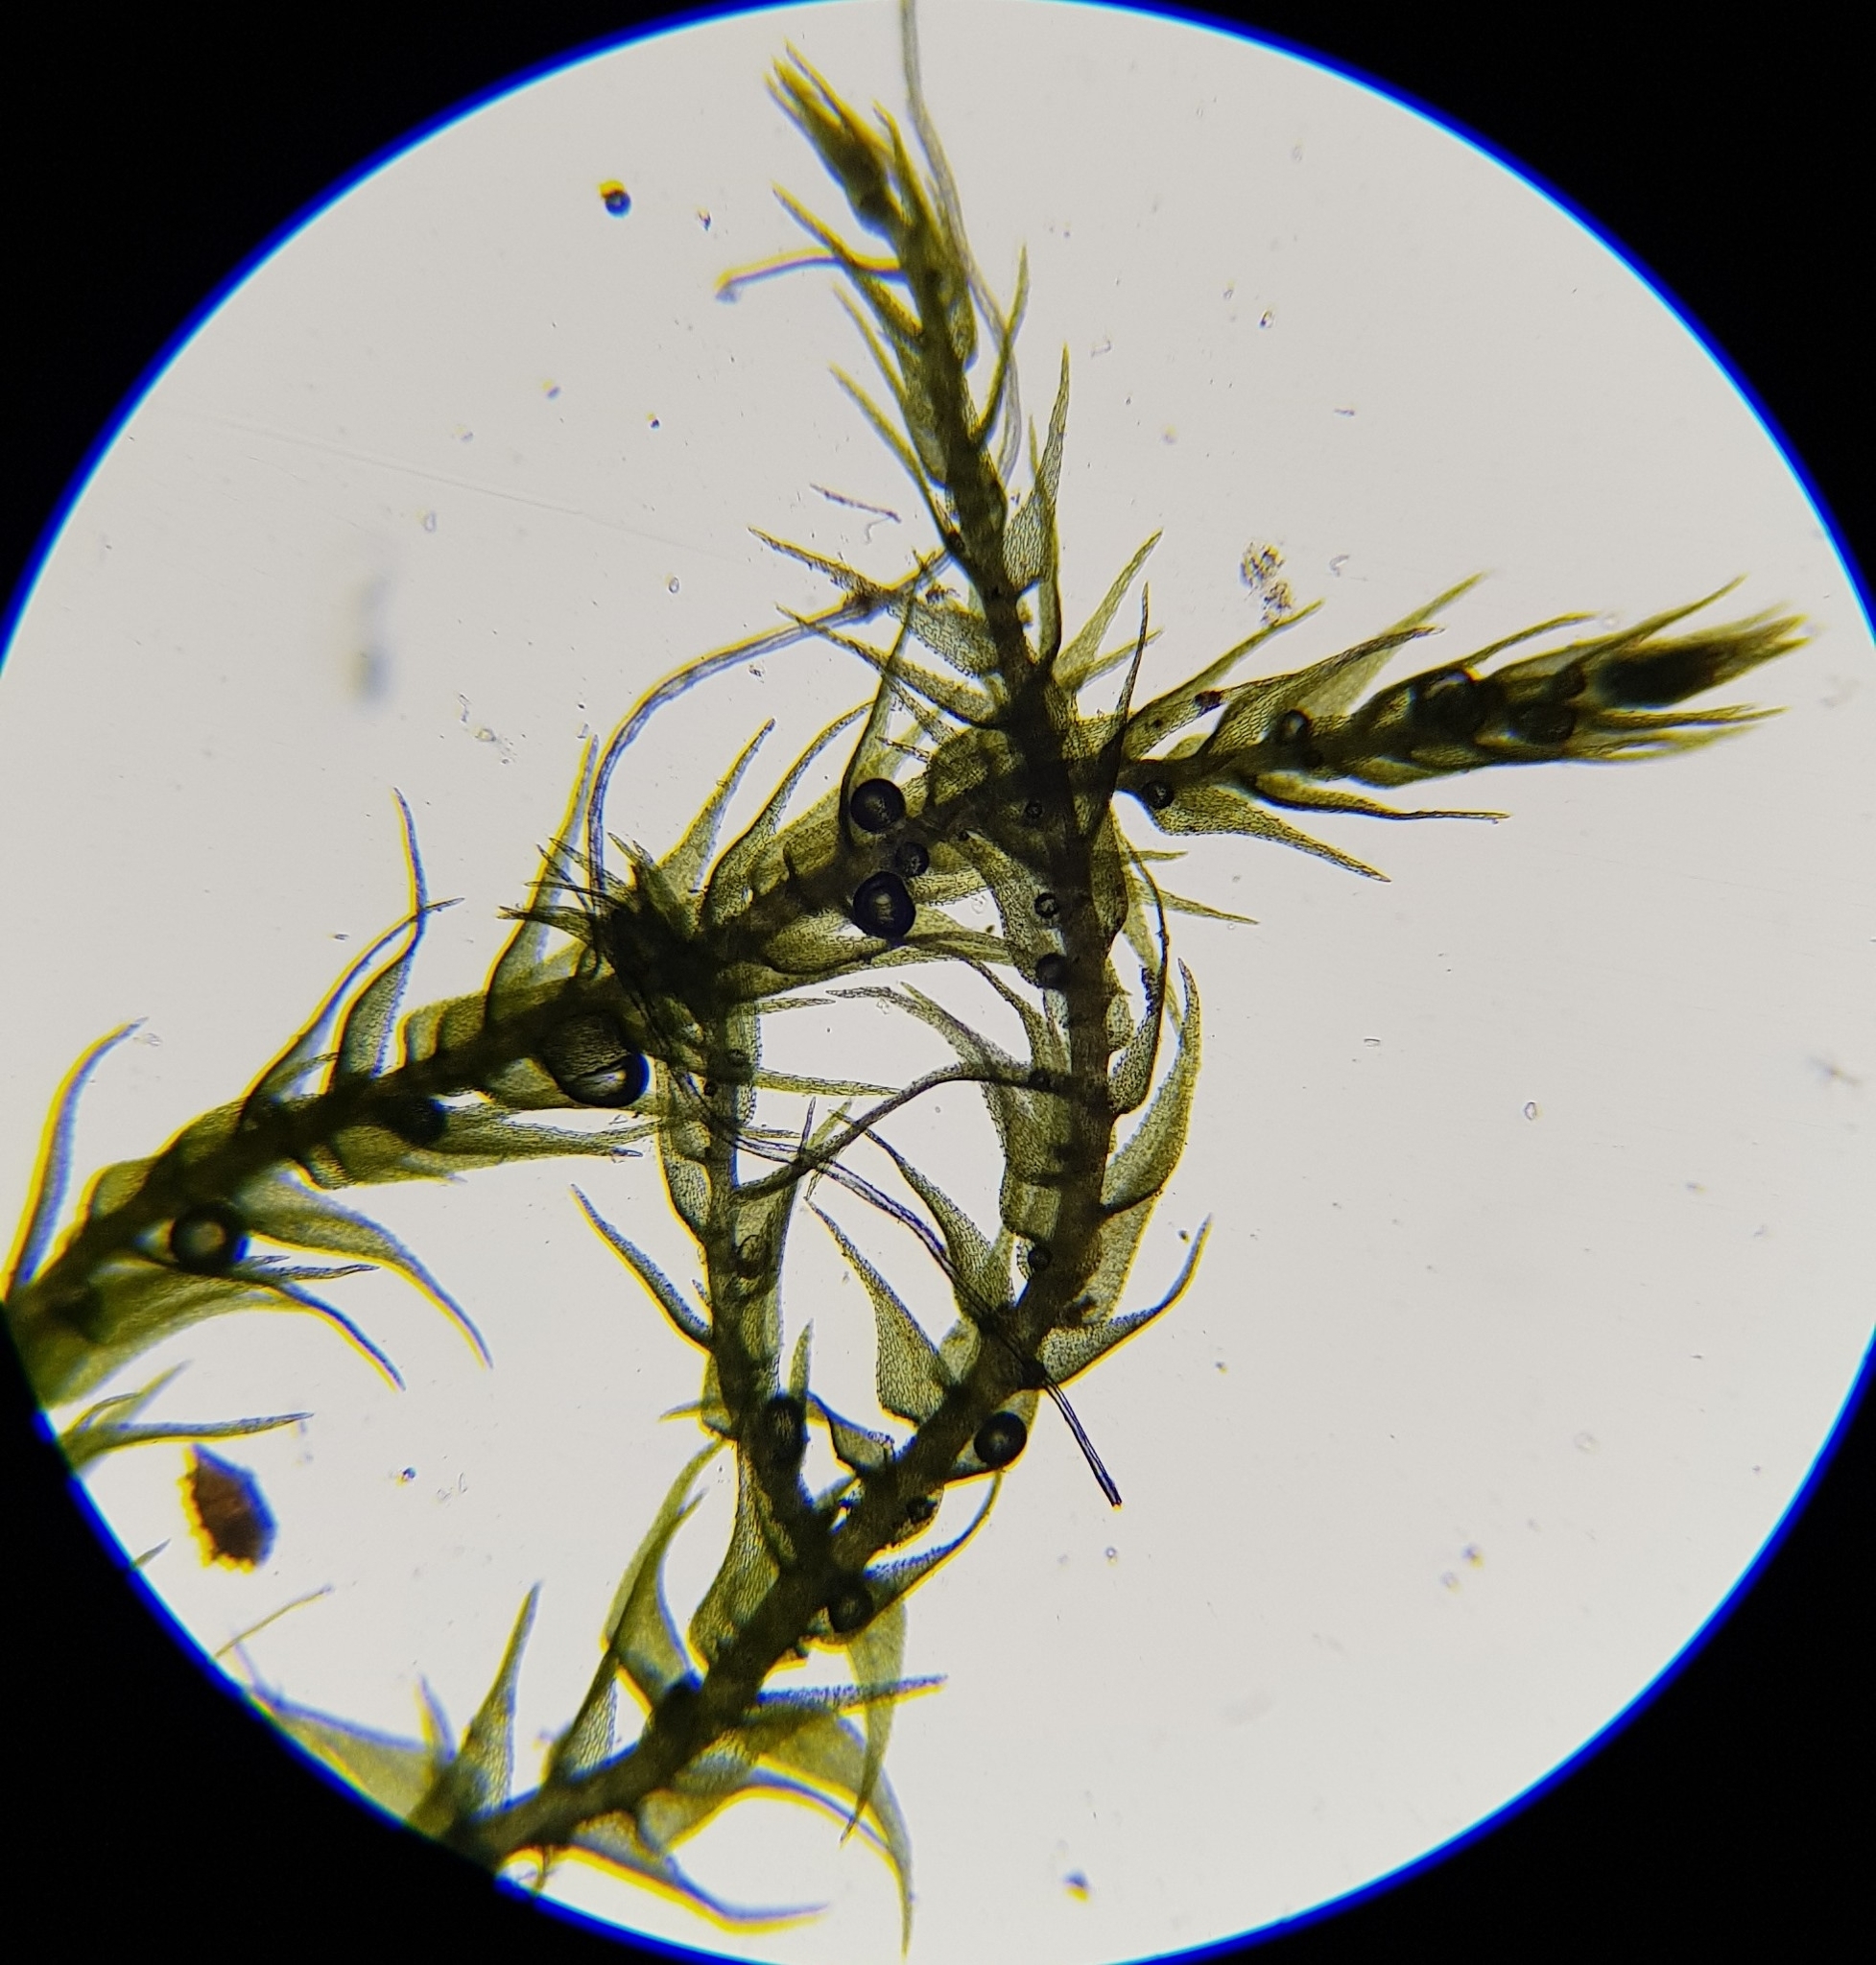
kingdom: Plantae
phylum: Bryophyta
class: Bryopsida
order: Hypnales
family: Amblystegiaceae
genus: Amblystegium
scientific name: Amblystegium serpens
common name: Jurkatzka's feather moss
